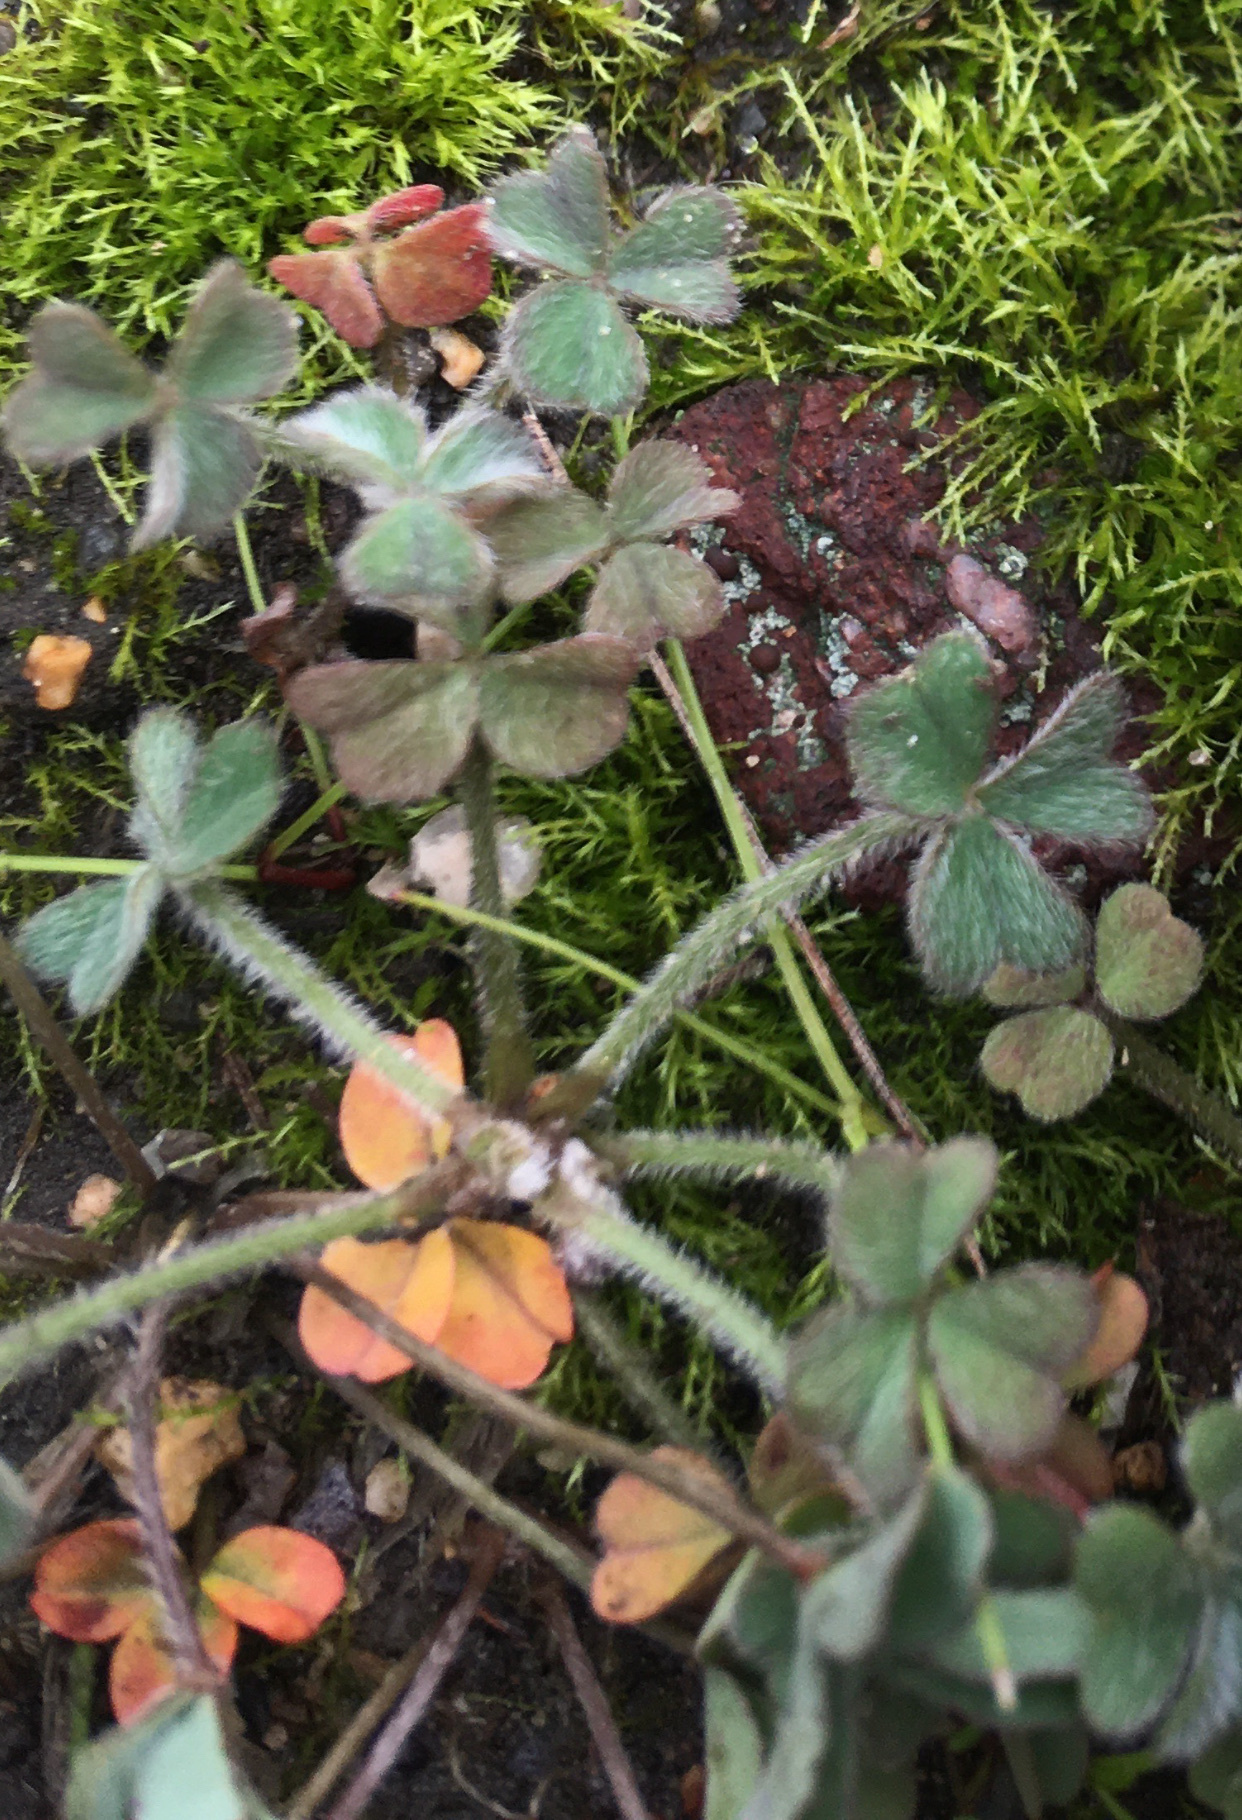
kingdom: Plantae
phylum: Tracheophyta
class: Magnoliopsida
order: Oxalidales
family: Oxalidaceae
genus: Oxalis
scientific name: Oxalis obtusa
